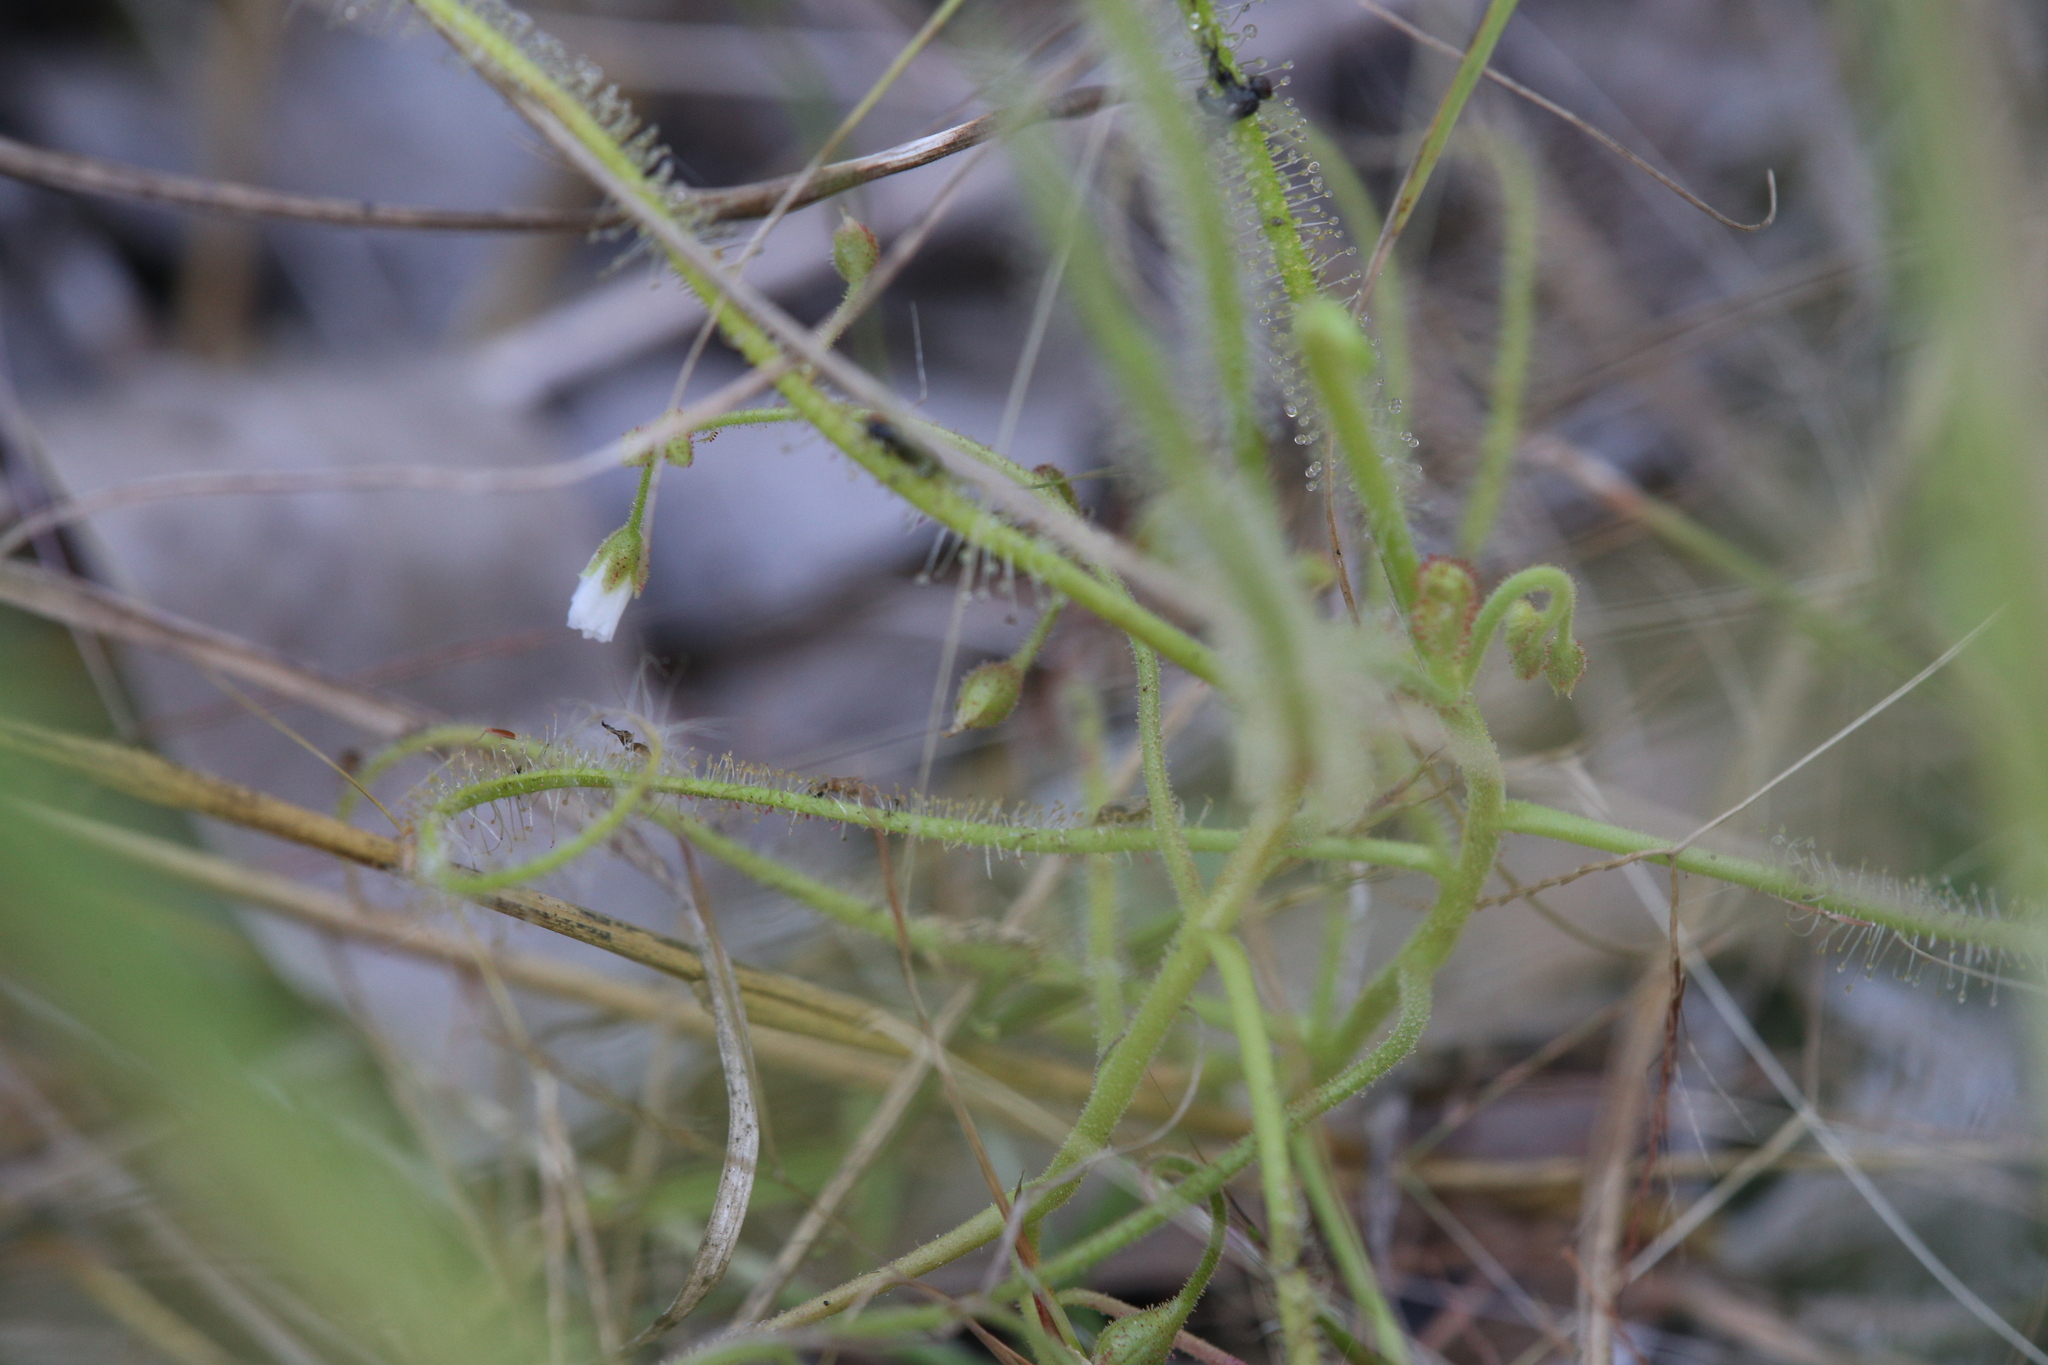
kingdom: Plantae
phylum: Tracheophyta
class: Magnoliopsida
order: Caryophyllales
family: Droseraceae
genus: Drosera
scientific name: Drosera indica
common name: Indian sundew
